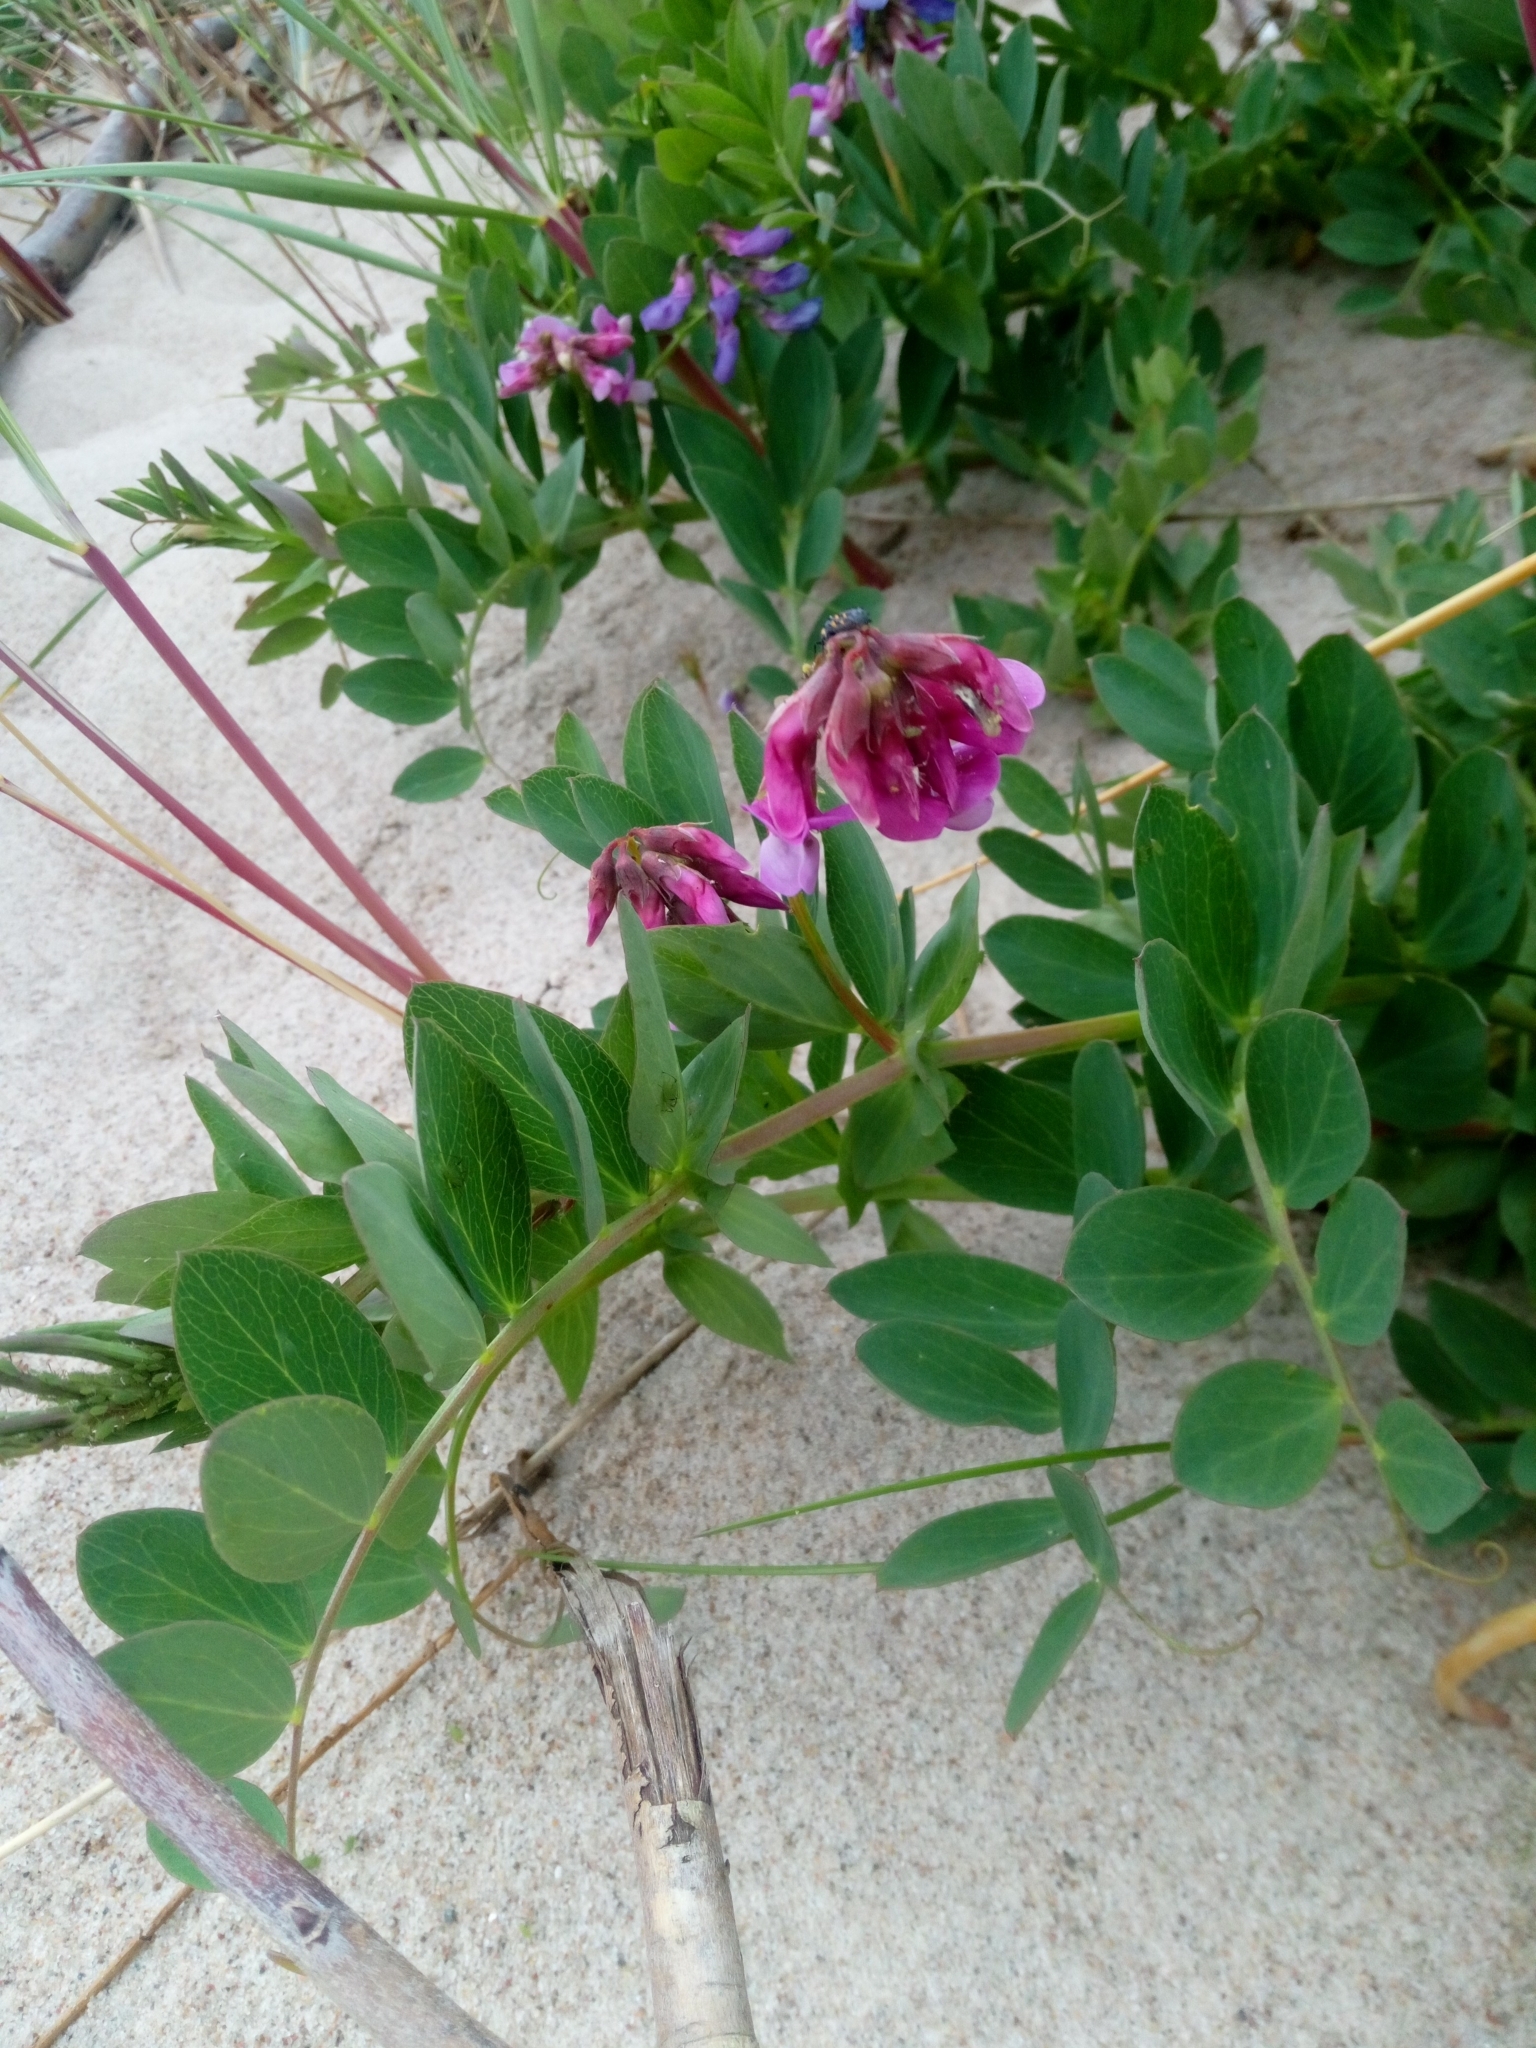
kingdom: Plantae
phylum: Tracheophyta
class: Magnoliopsida
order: Fabales
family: Fabaceae
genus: Lathyrus
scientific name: Lathyrus japonicus
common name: Sea pea
